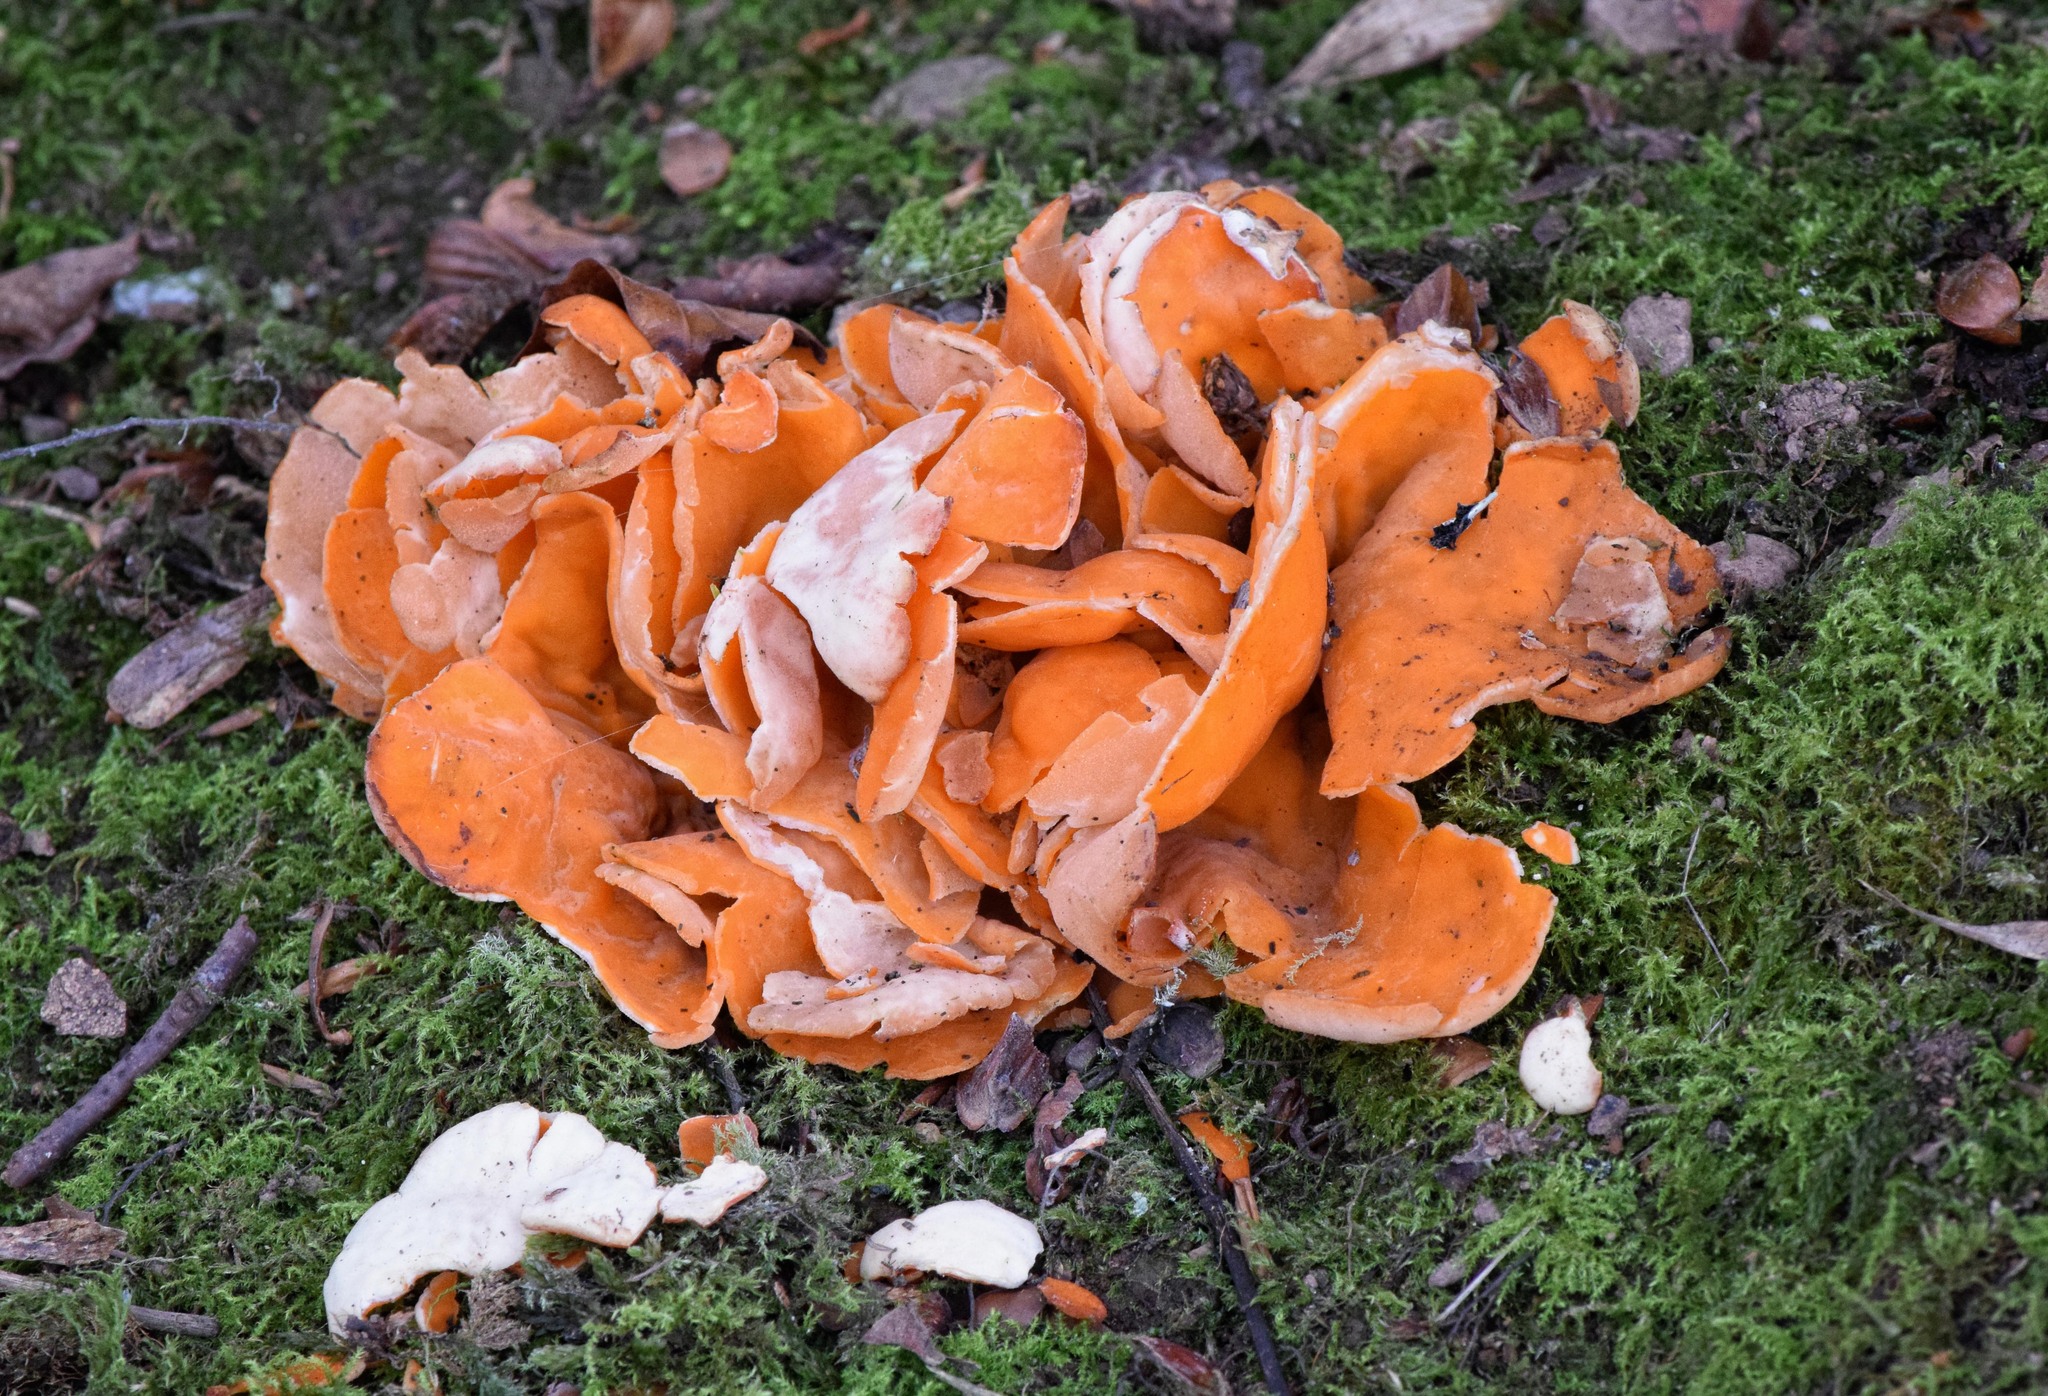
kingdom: Fungi
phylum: Ascomycota
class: Pezizomycetes
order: Pezizales
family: Pyronemataceae
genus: Aleuria
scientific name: Aleuria aurantia
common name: Orange peel fungus
